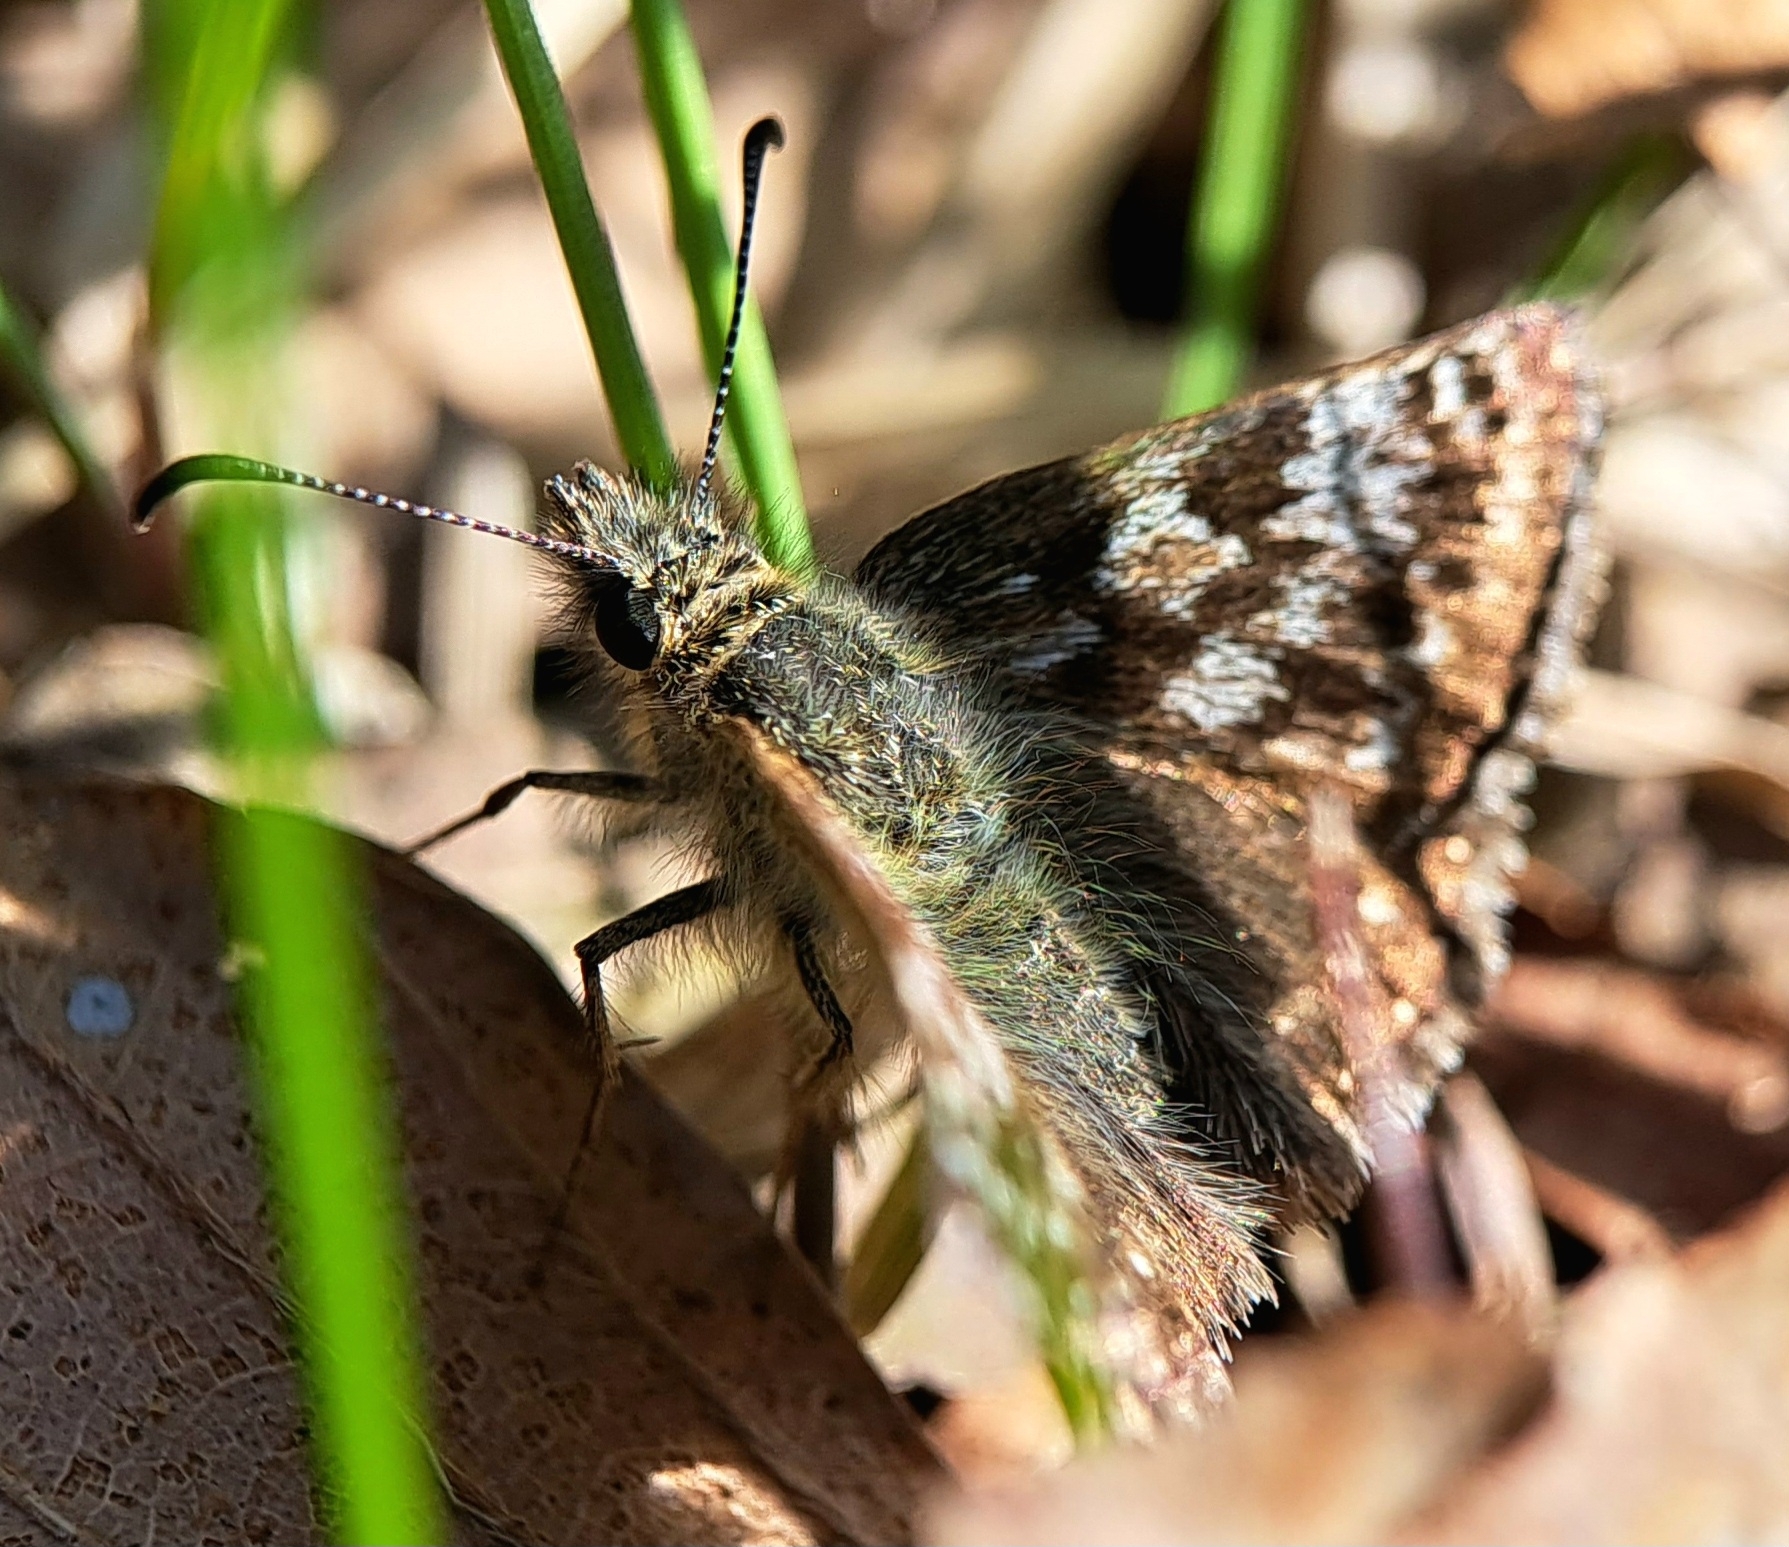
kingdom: Animalia
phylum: Arthropoda
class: Insecta
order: Lepidoptera
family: Hesperiidae
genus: Erynnis
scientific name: Erynnis tages
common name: Dingy skipper
